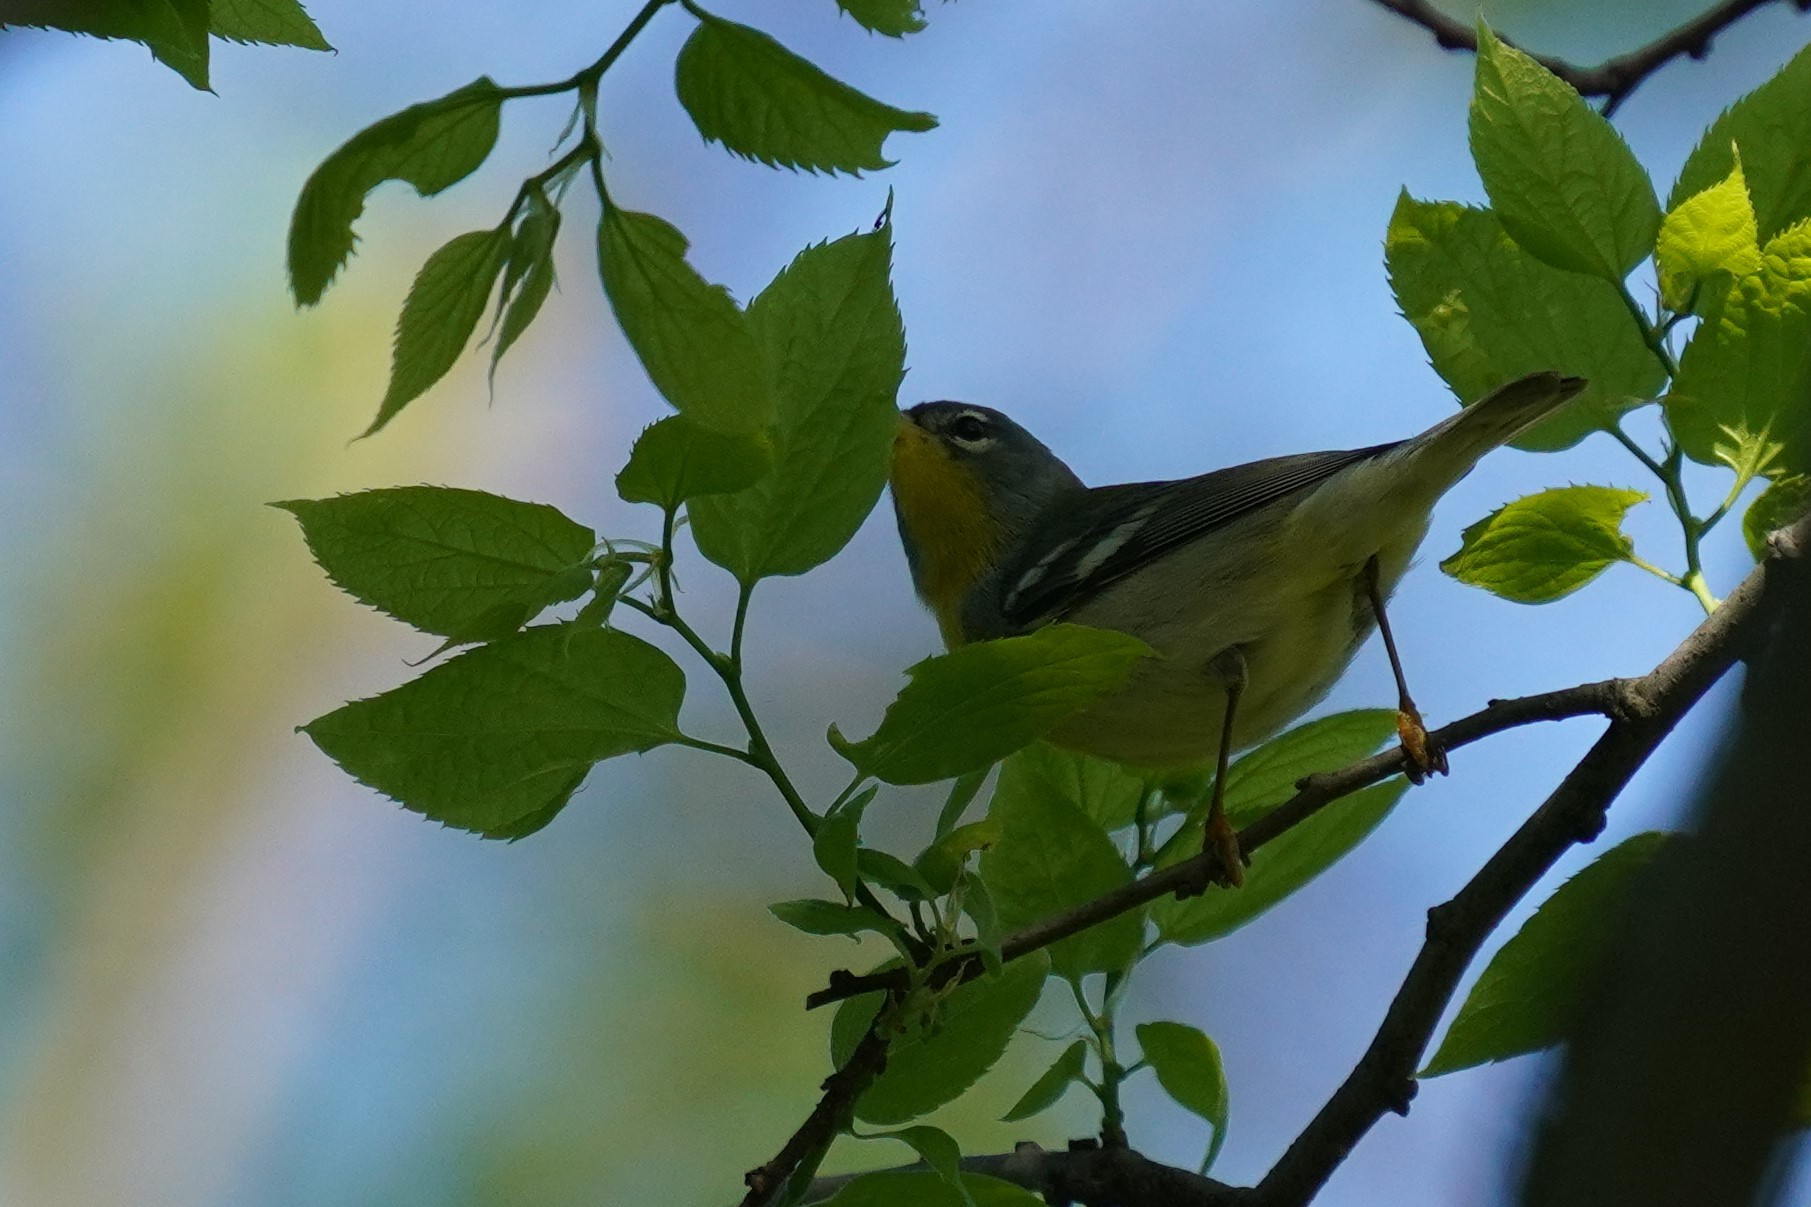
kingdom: Animalia
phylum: Chordata
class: Aves
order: Passeriformes
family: Parulidae
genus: Setophaga
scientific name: Setophaga americana
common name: Northern parula
